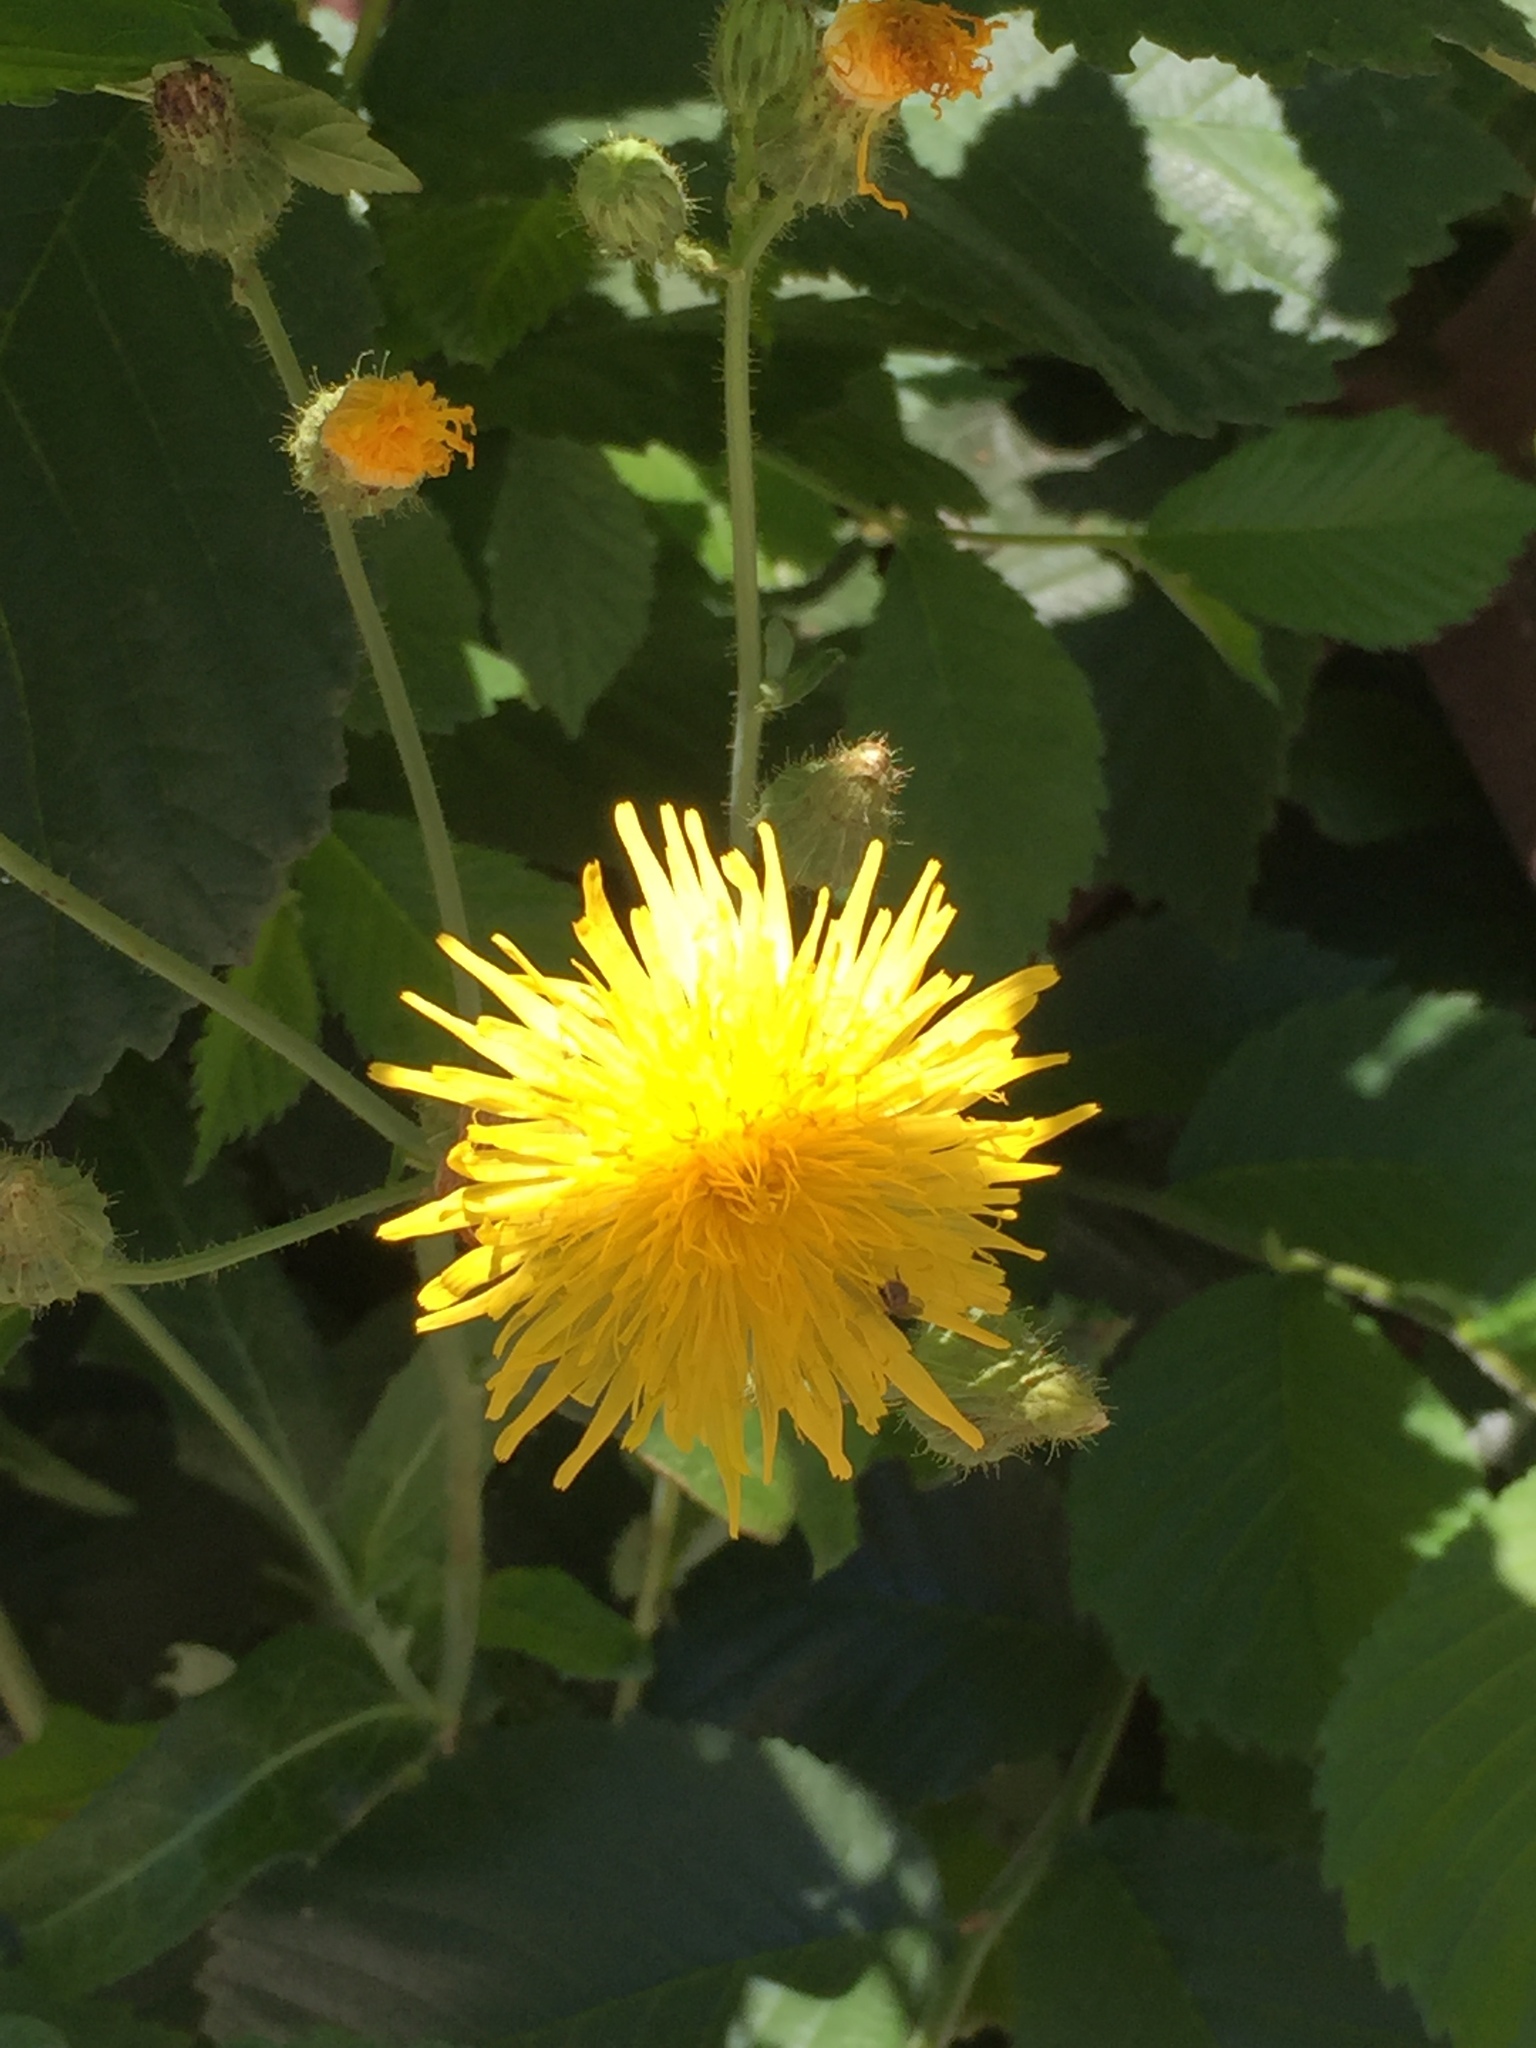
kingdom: Plantae
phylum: Tracheophyta
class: Magnoliopsida
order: Asterales
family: Asteraceae
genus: Sonchus
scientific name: Sonchus arvensis
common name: Perennial sow-thistle
